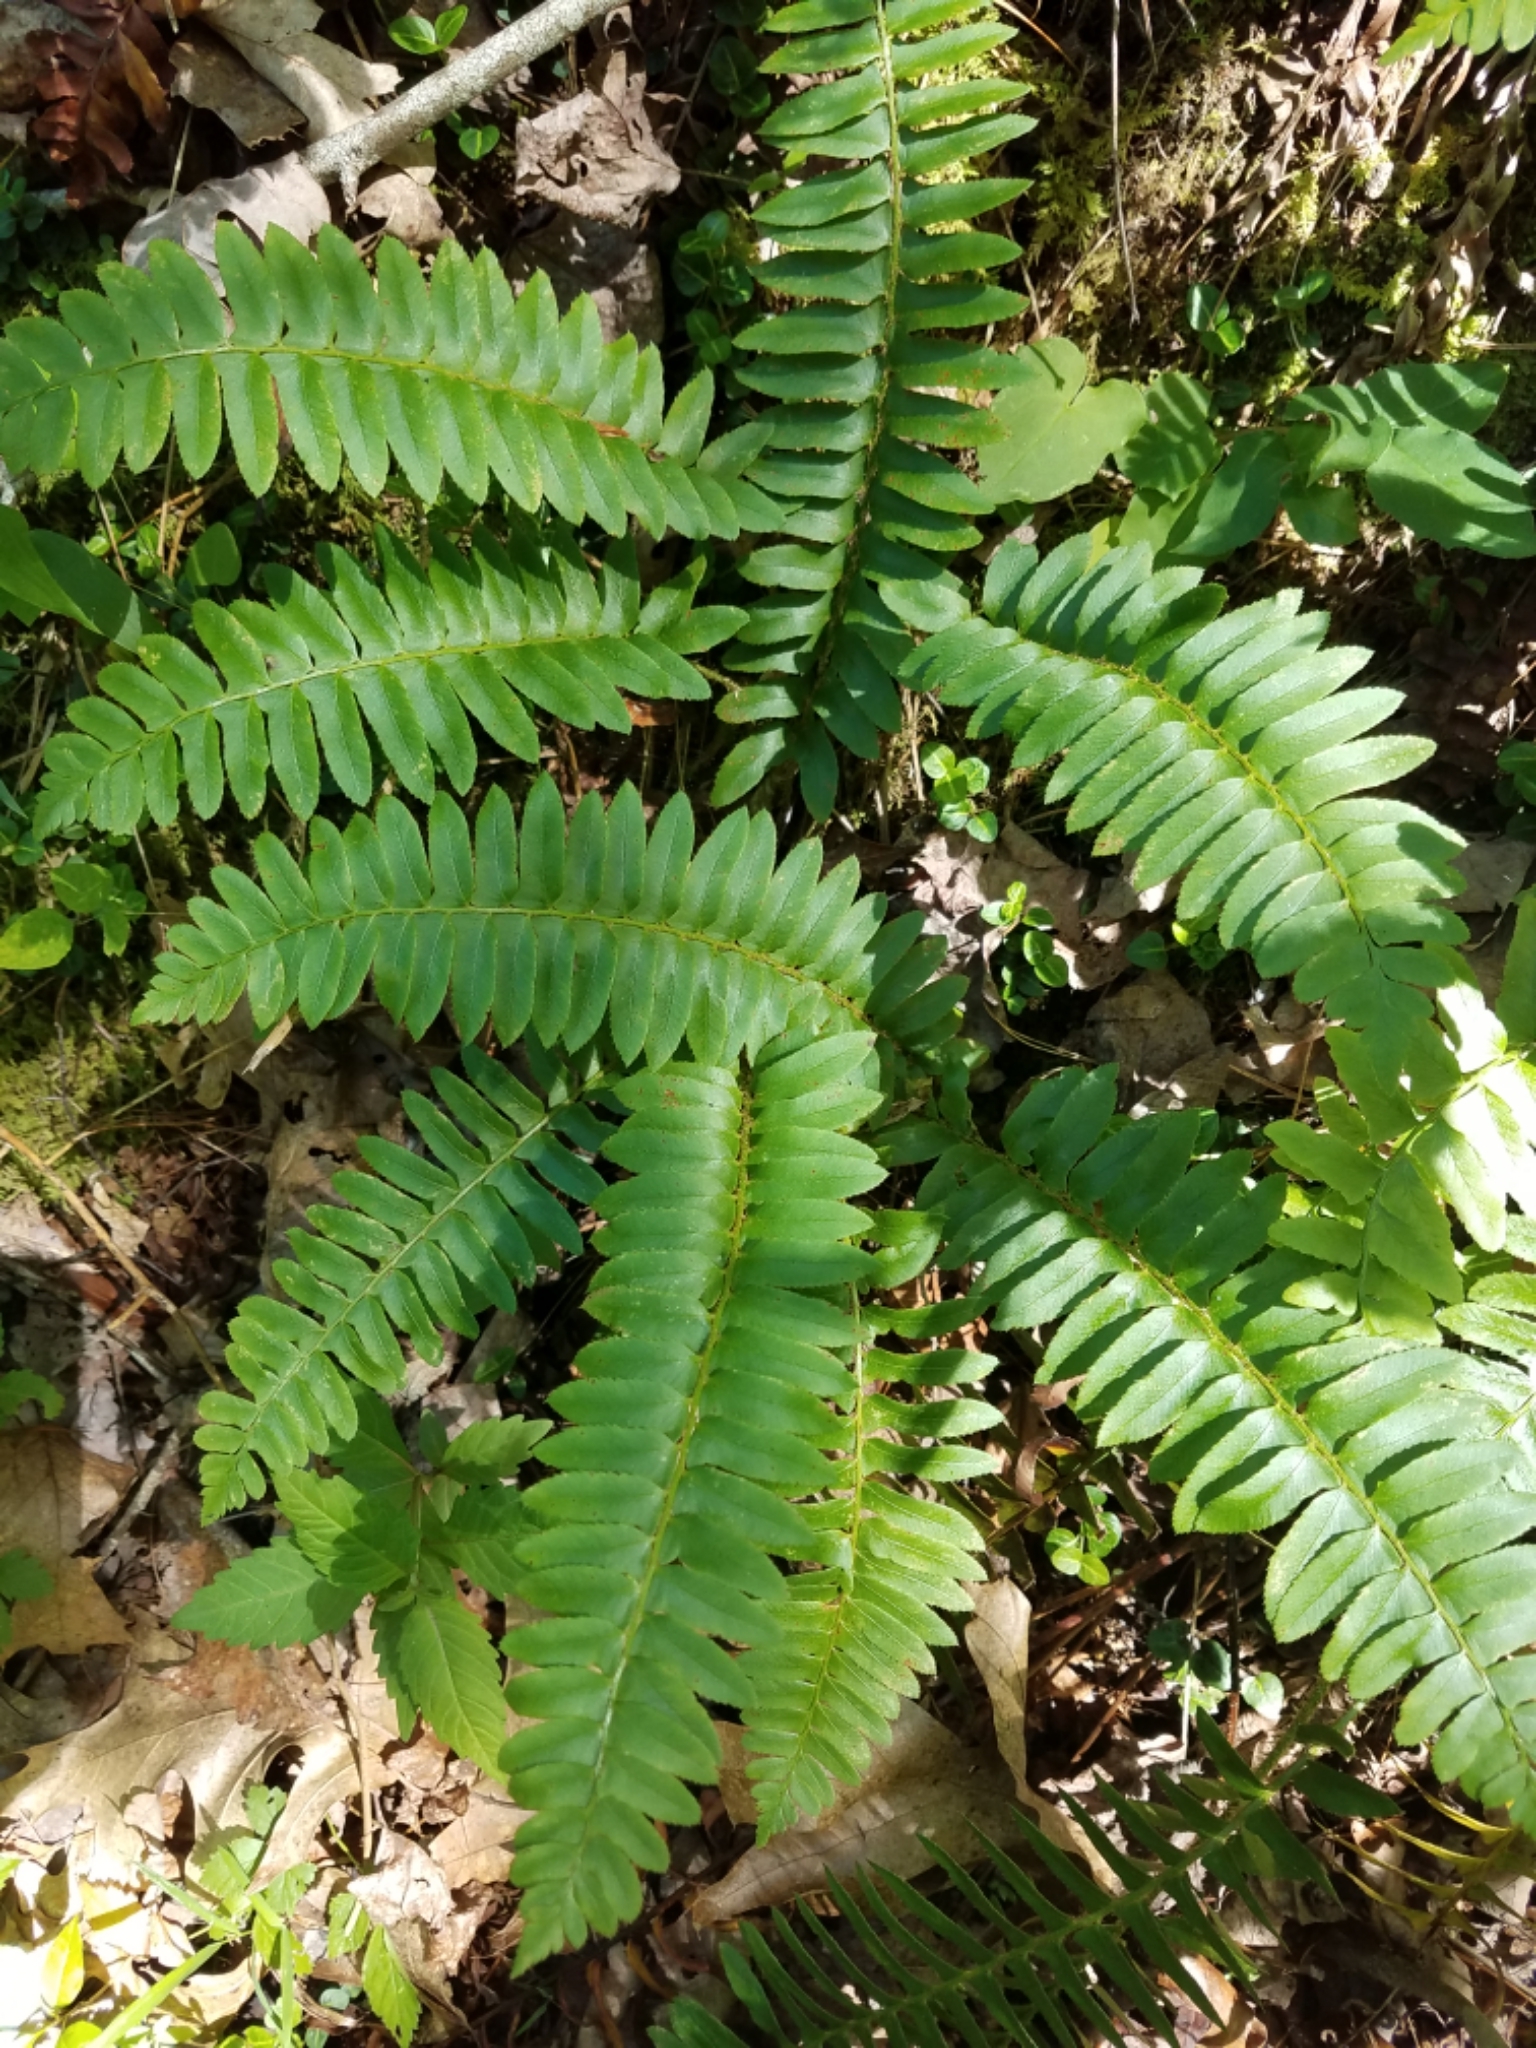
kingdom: Plantae
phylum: Tracheophyta
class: Polypodiopsida
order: Polypodiales
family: Dryopteridaceae
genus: Polystichum
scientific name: Polystichum acrostichoides
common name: Christmas fern
